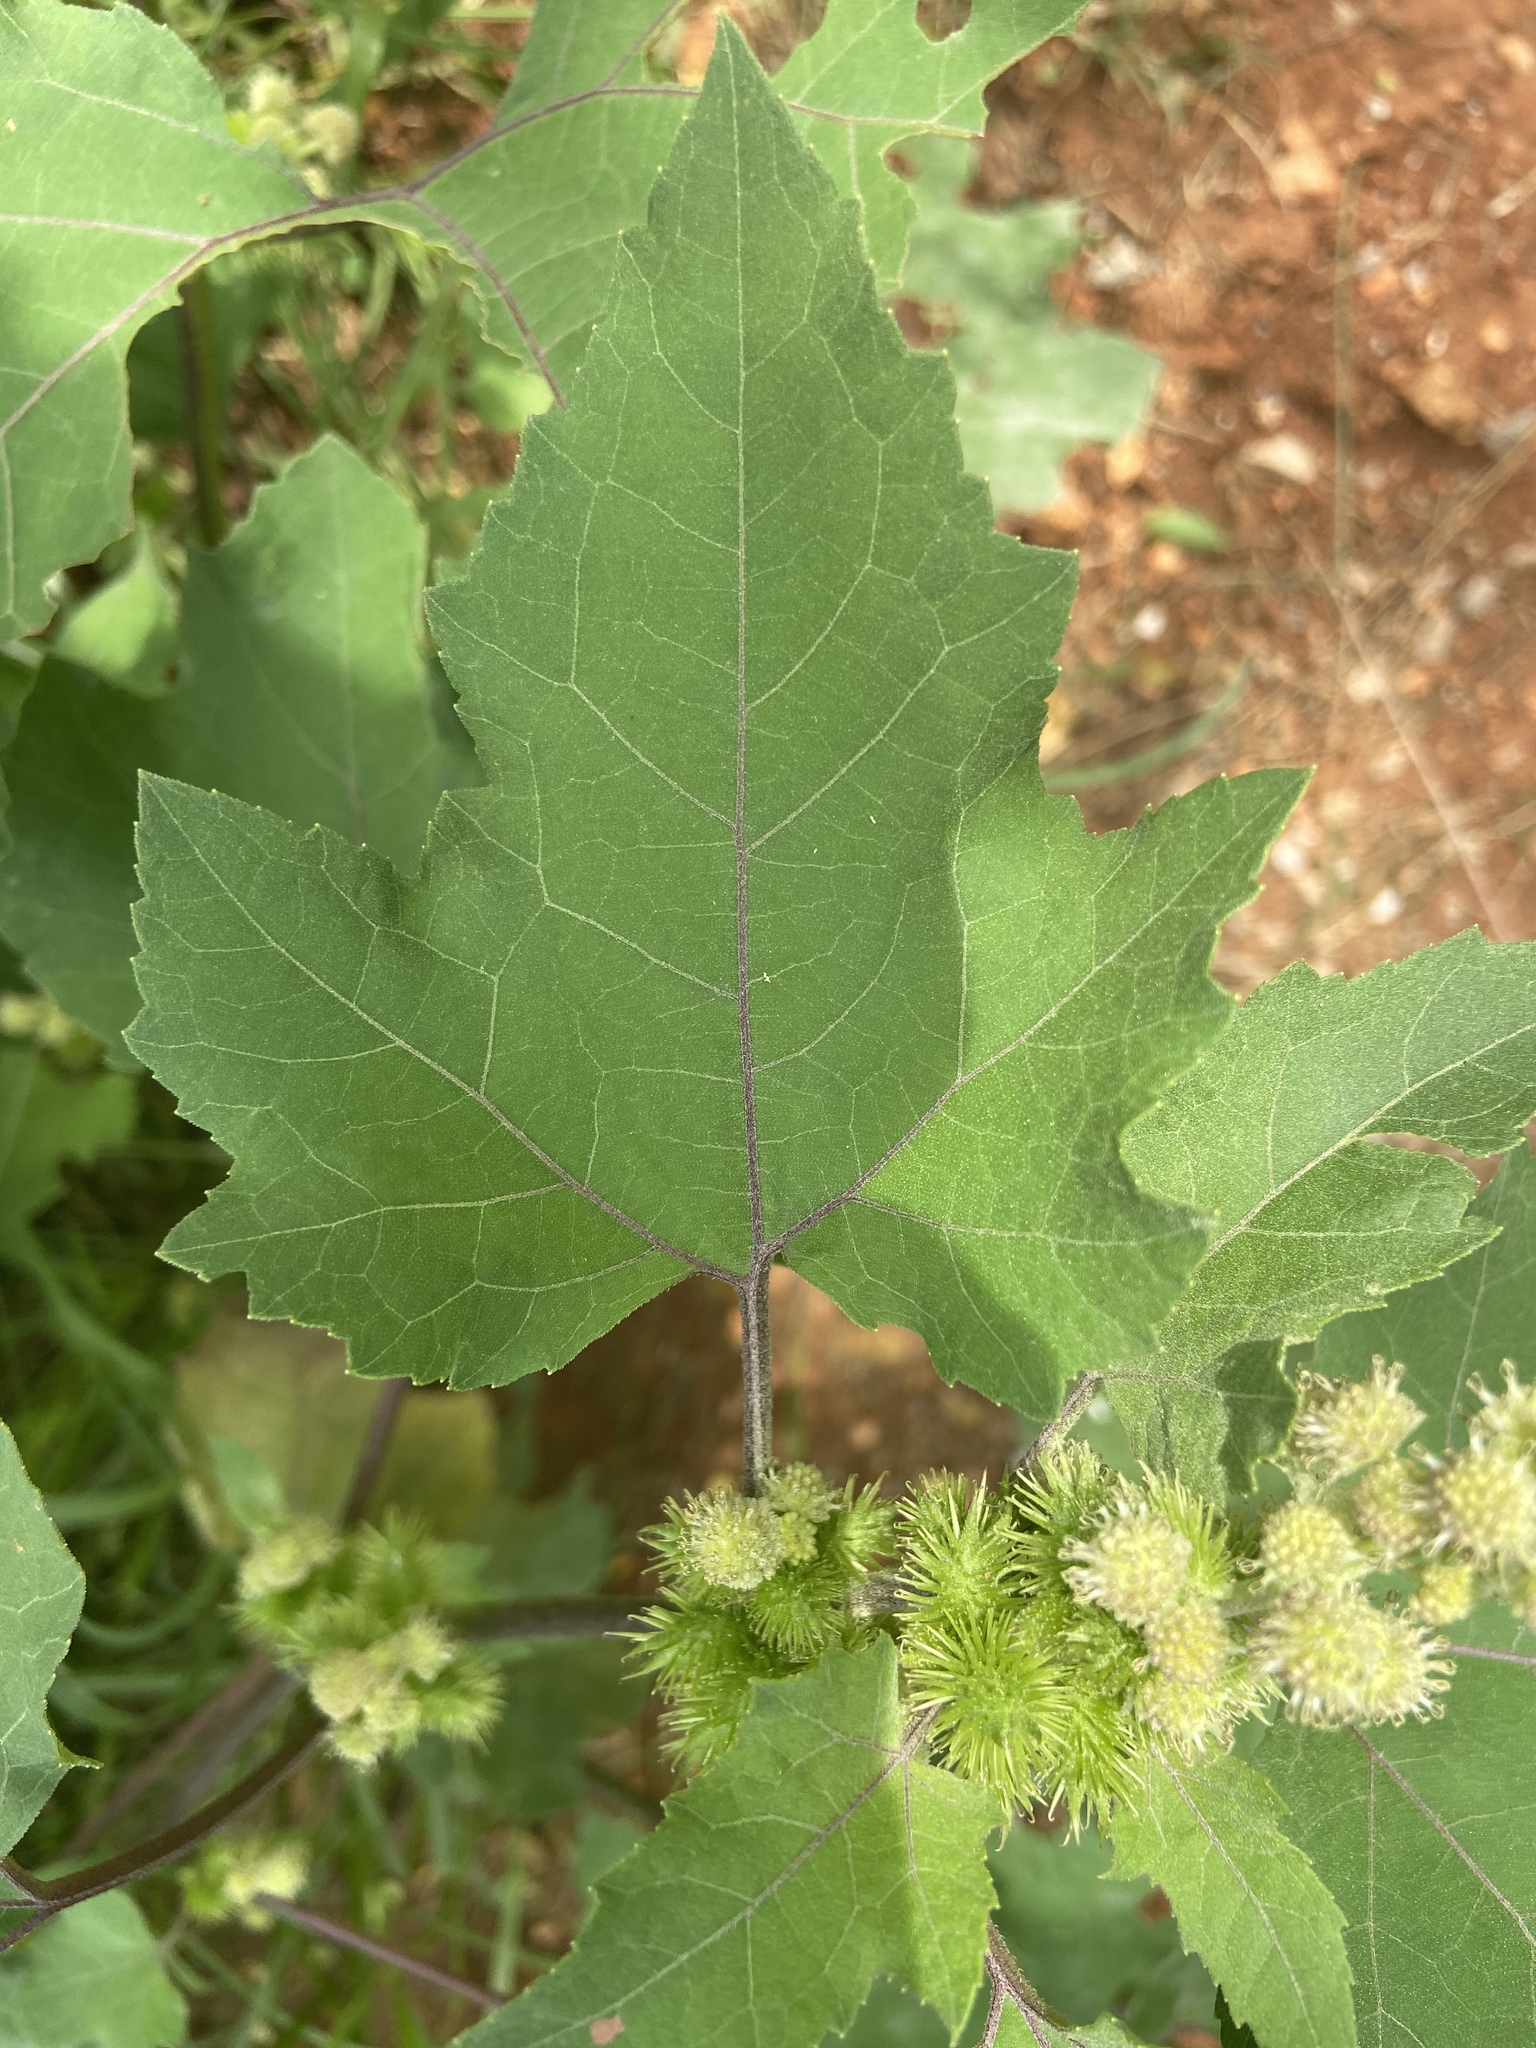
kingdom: Plantae
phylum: Tracheophyta
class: Magnoliopsida
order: Asterales
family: Asteraceae
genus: Xanthium
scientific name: Xanthium strumarium
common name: Rough cocklebur
